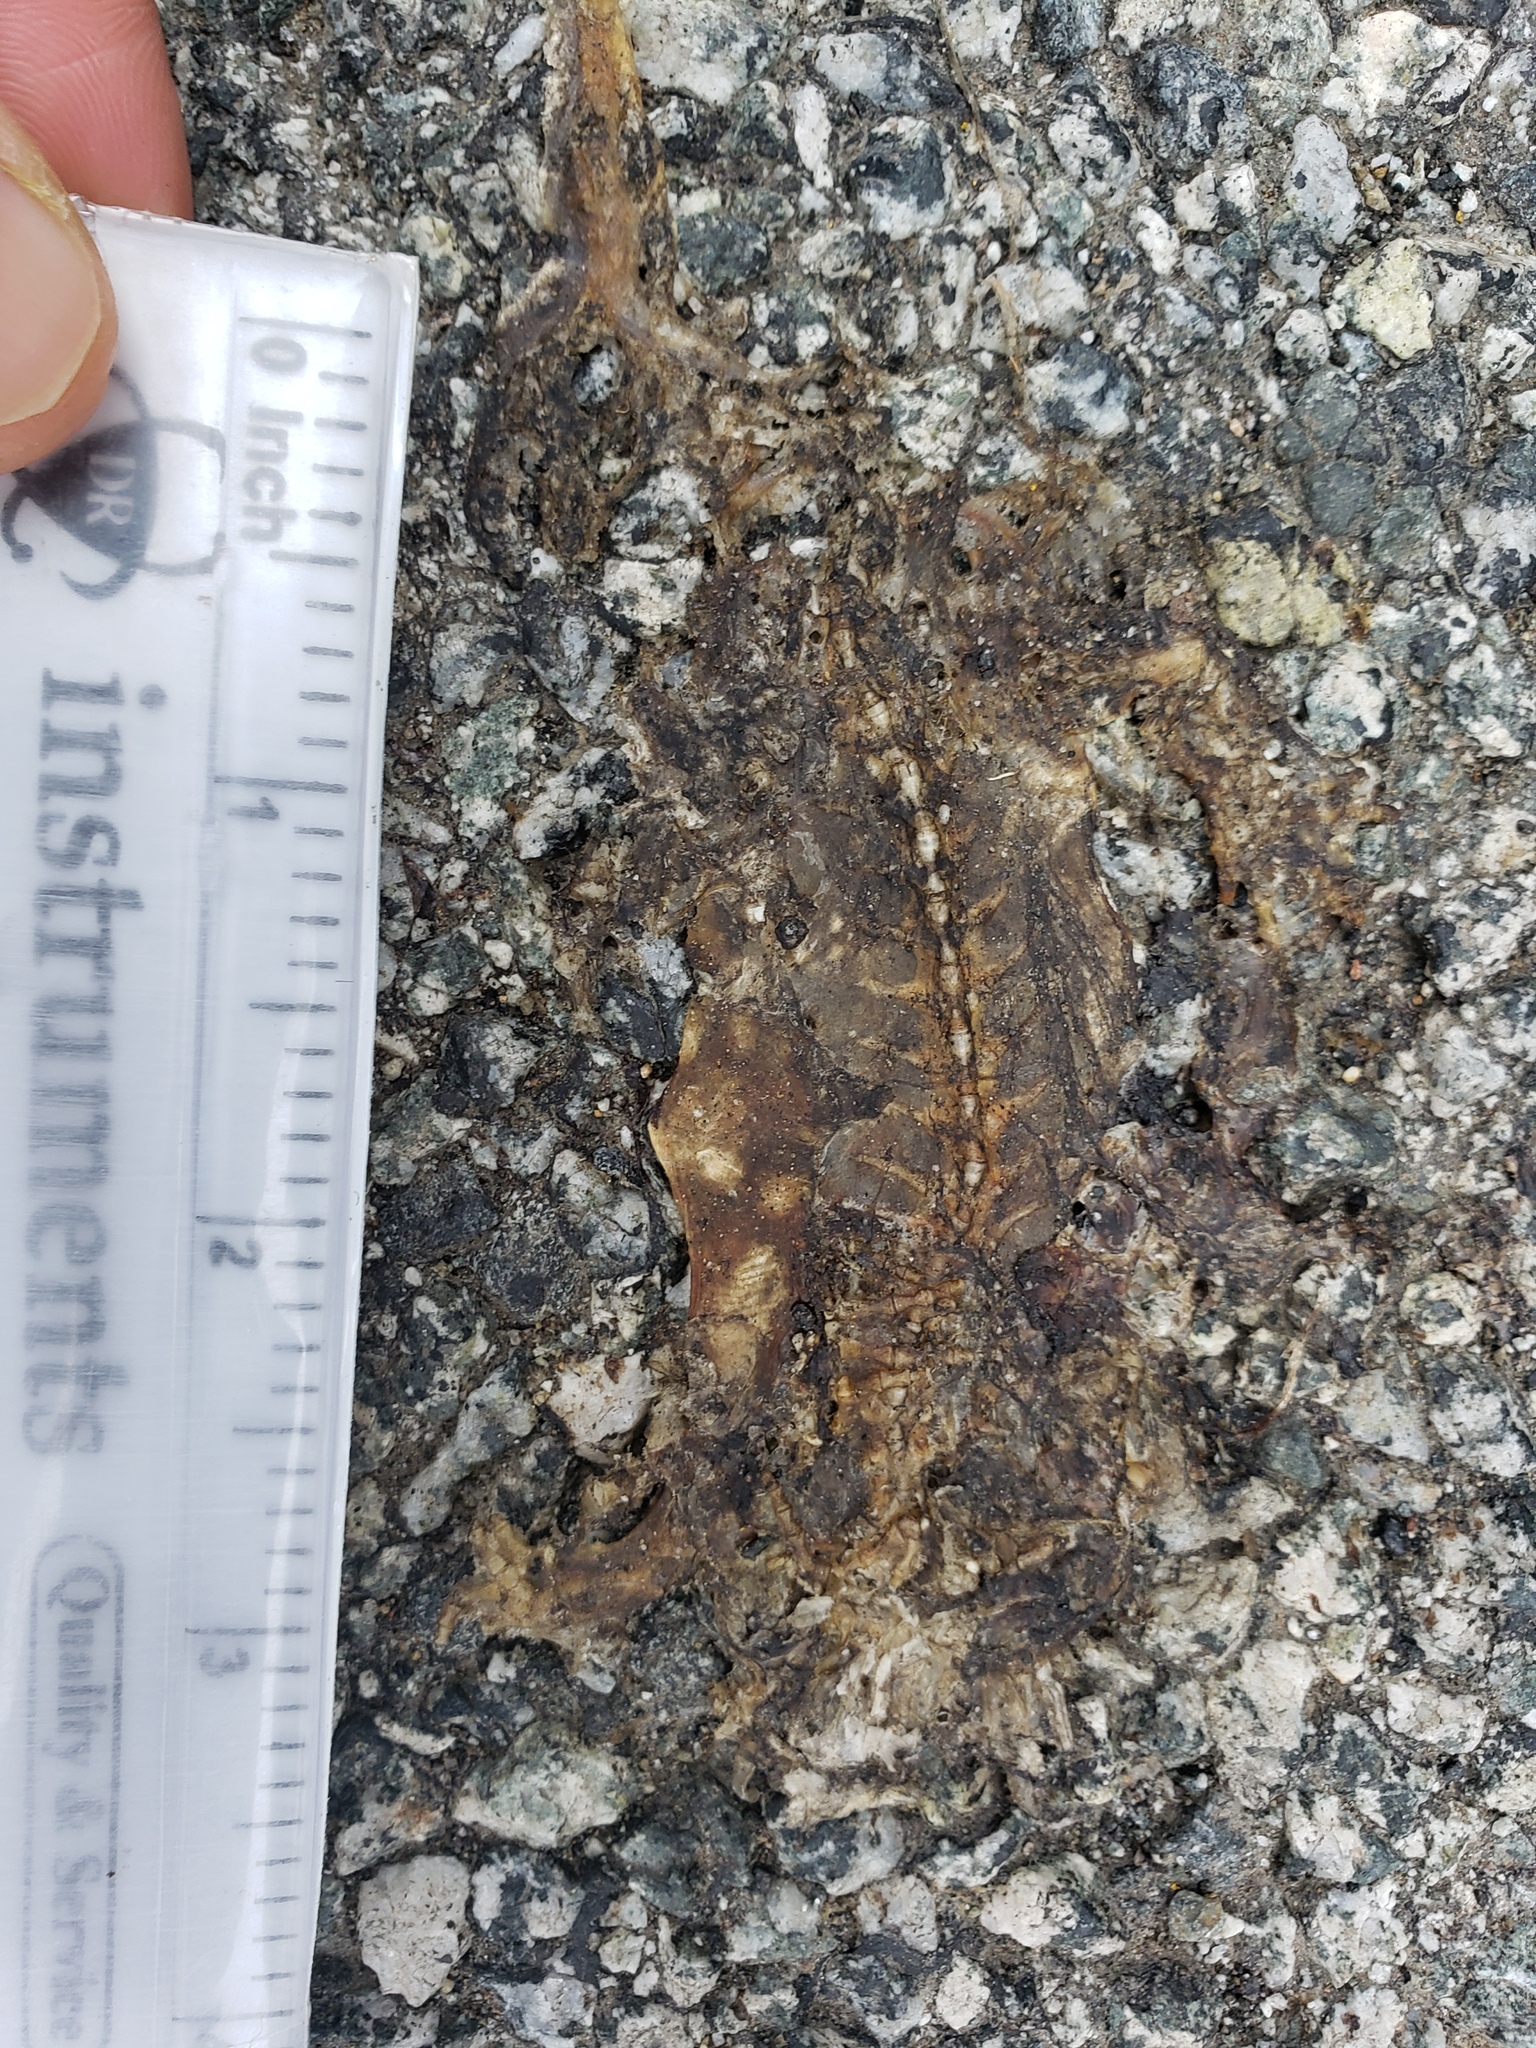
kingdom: Animalia
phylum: Chordata
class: Amphibia
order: Caudata
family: Salamandridae
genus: Taricha
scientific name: Taricha
